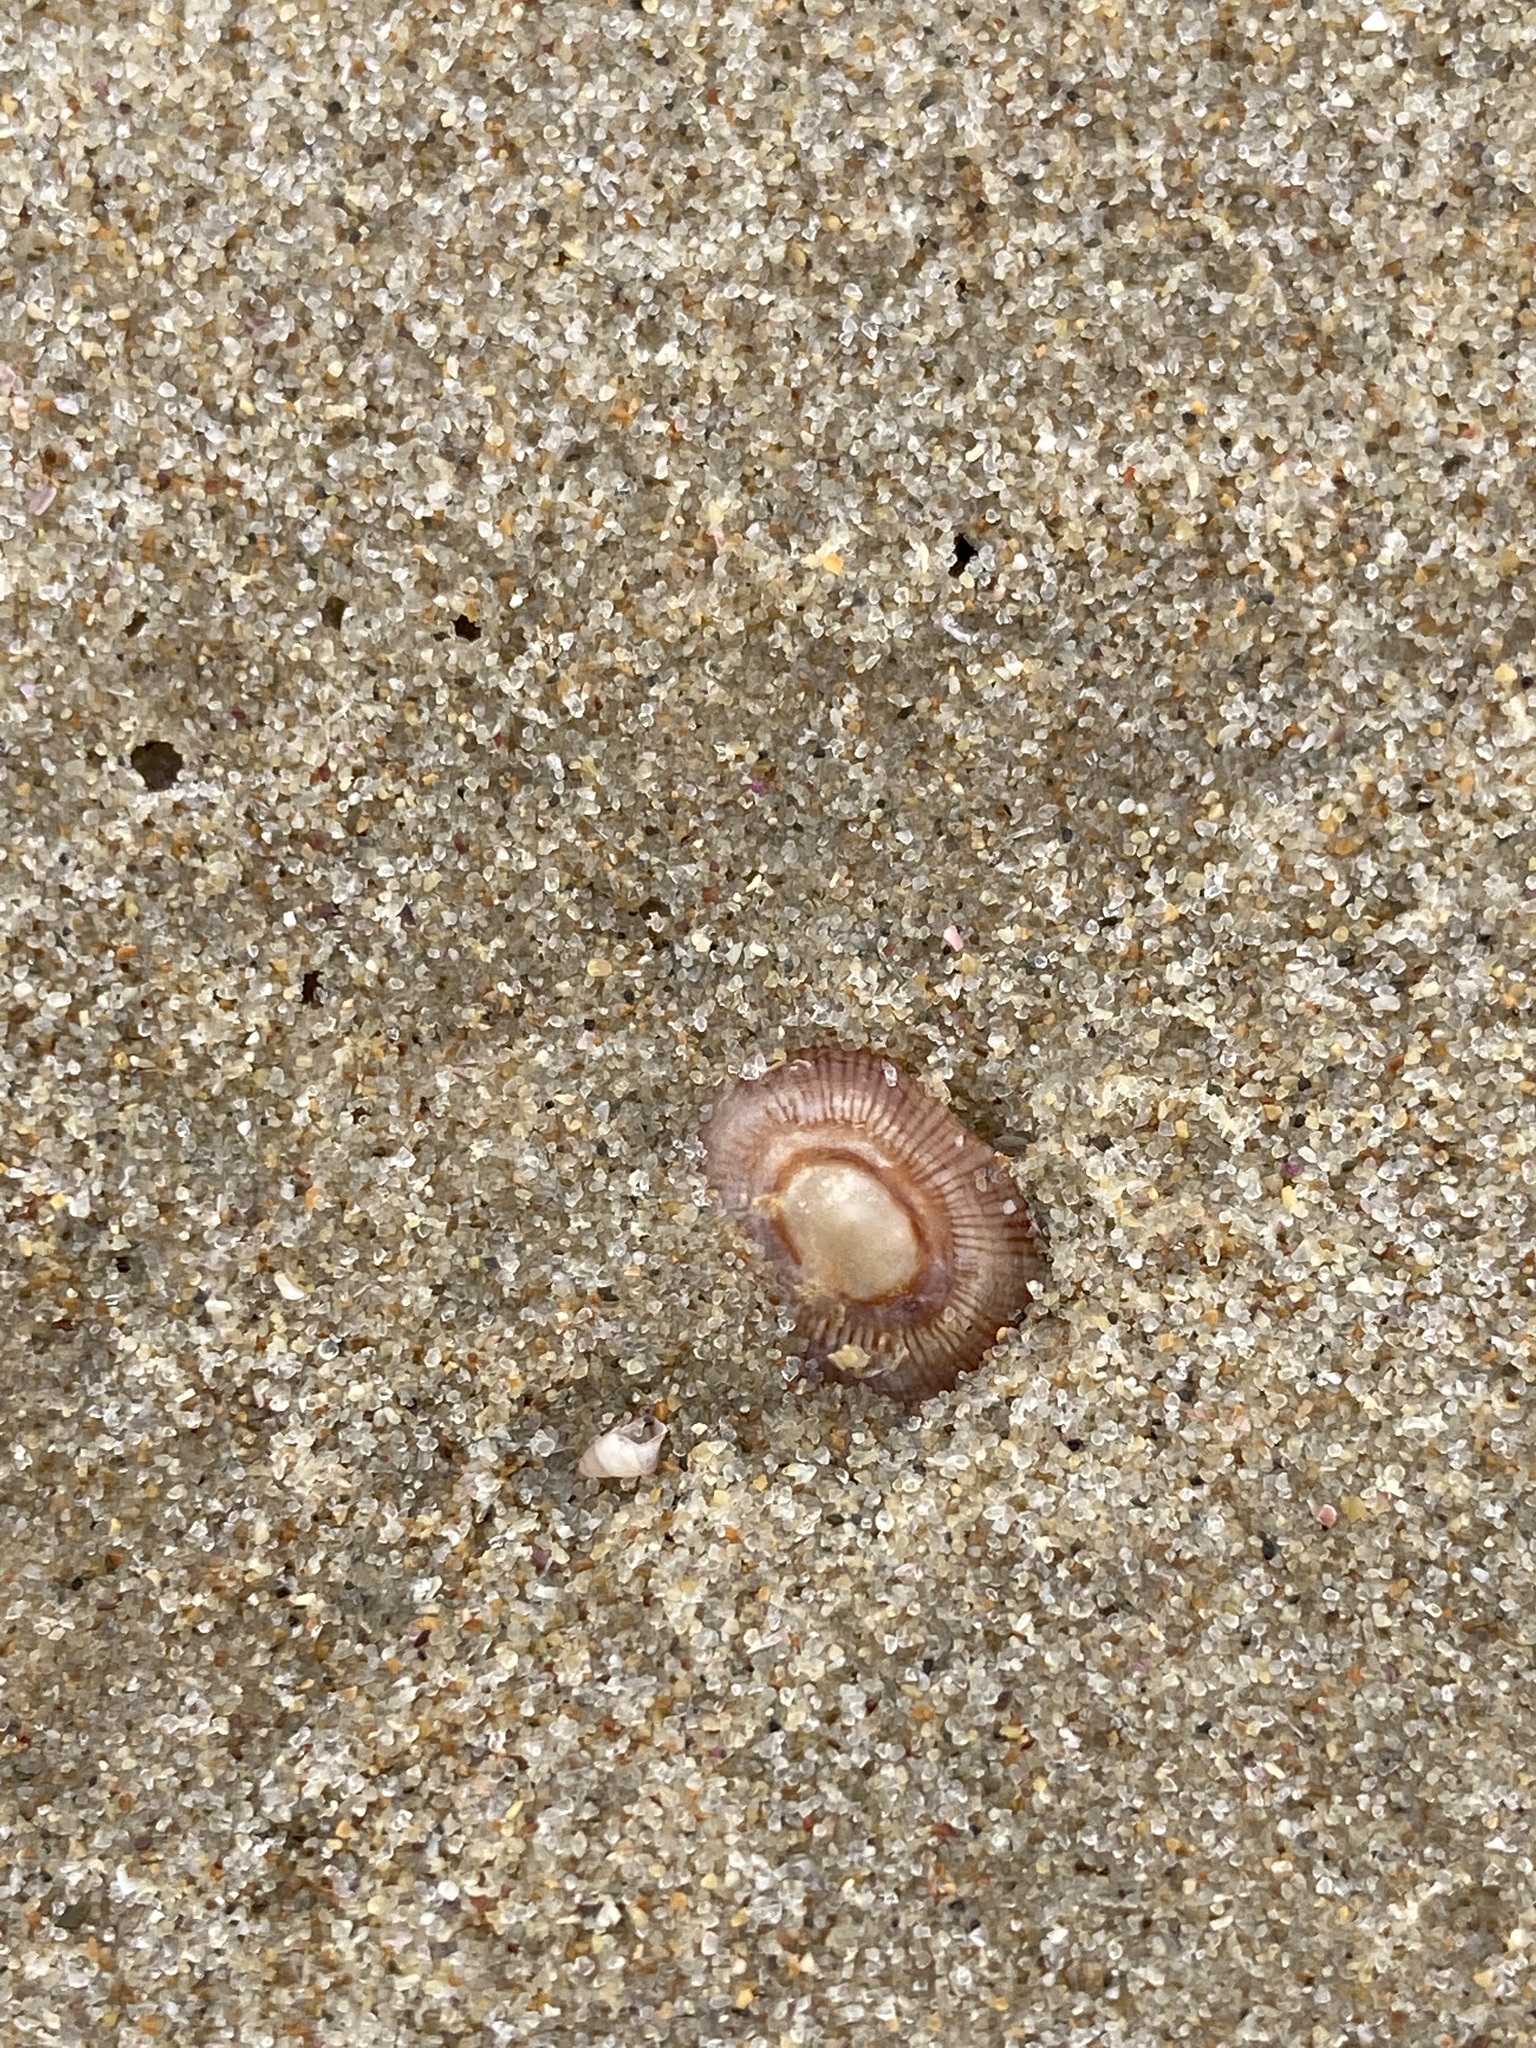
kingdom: Animalia
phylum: Mollusca
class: Gastropoda
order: Siphonariida
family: Siphonariidae
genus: Siphonaria
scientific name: Siphonaria funiculata
